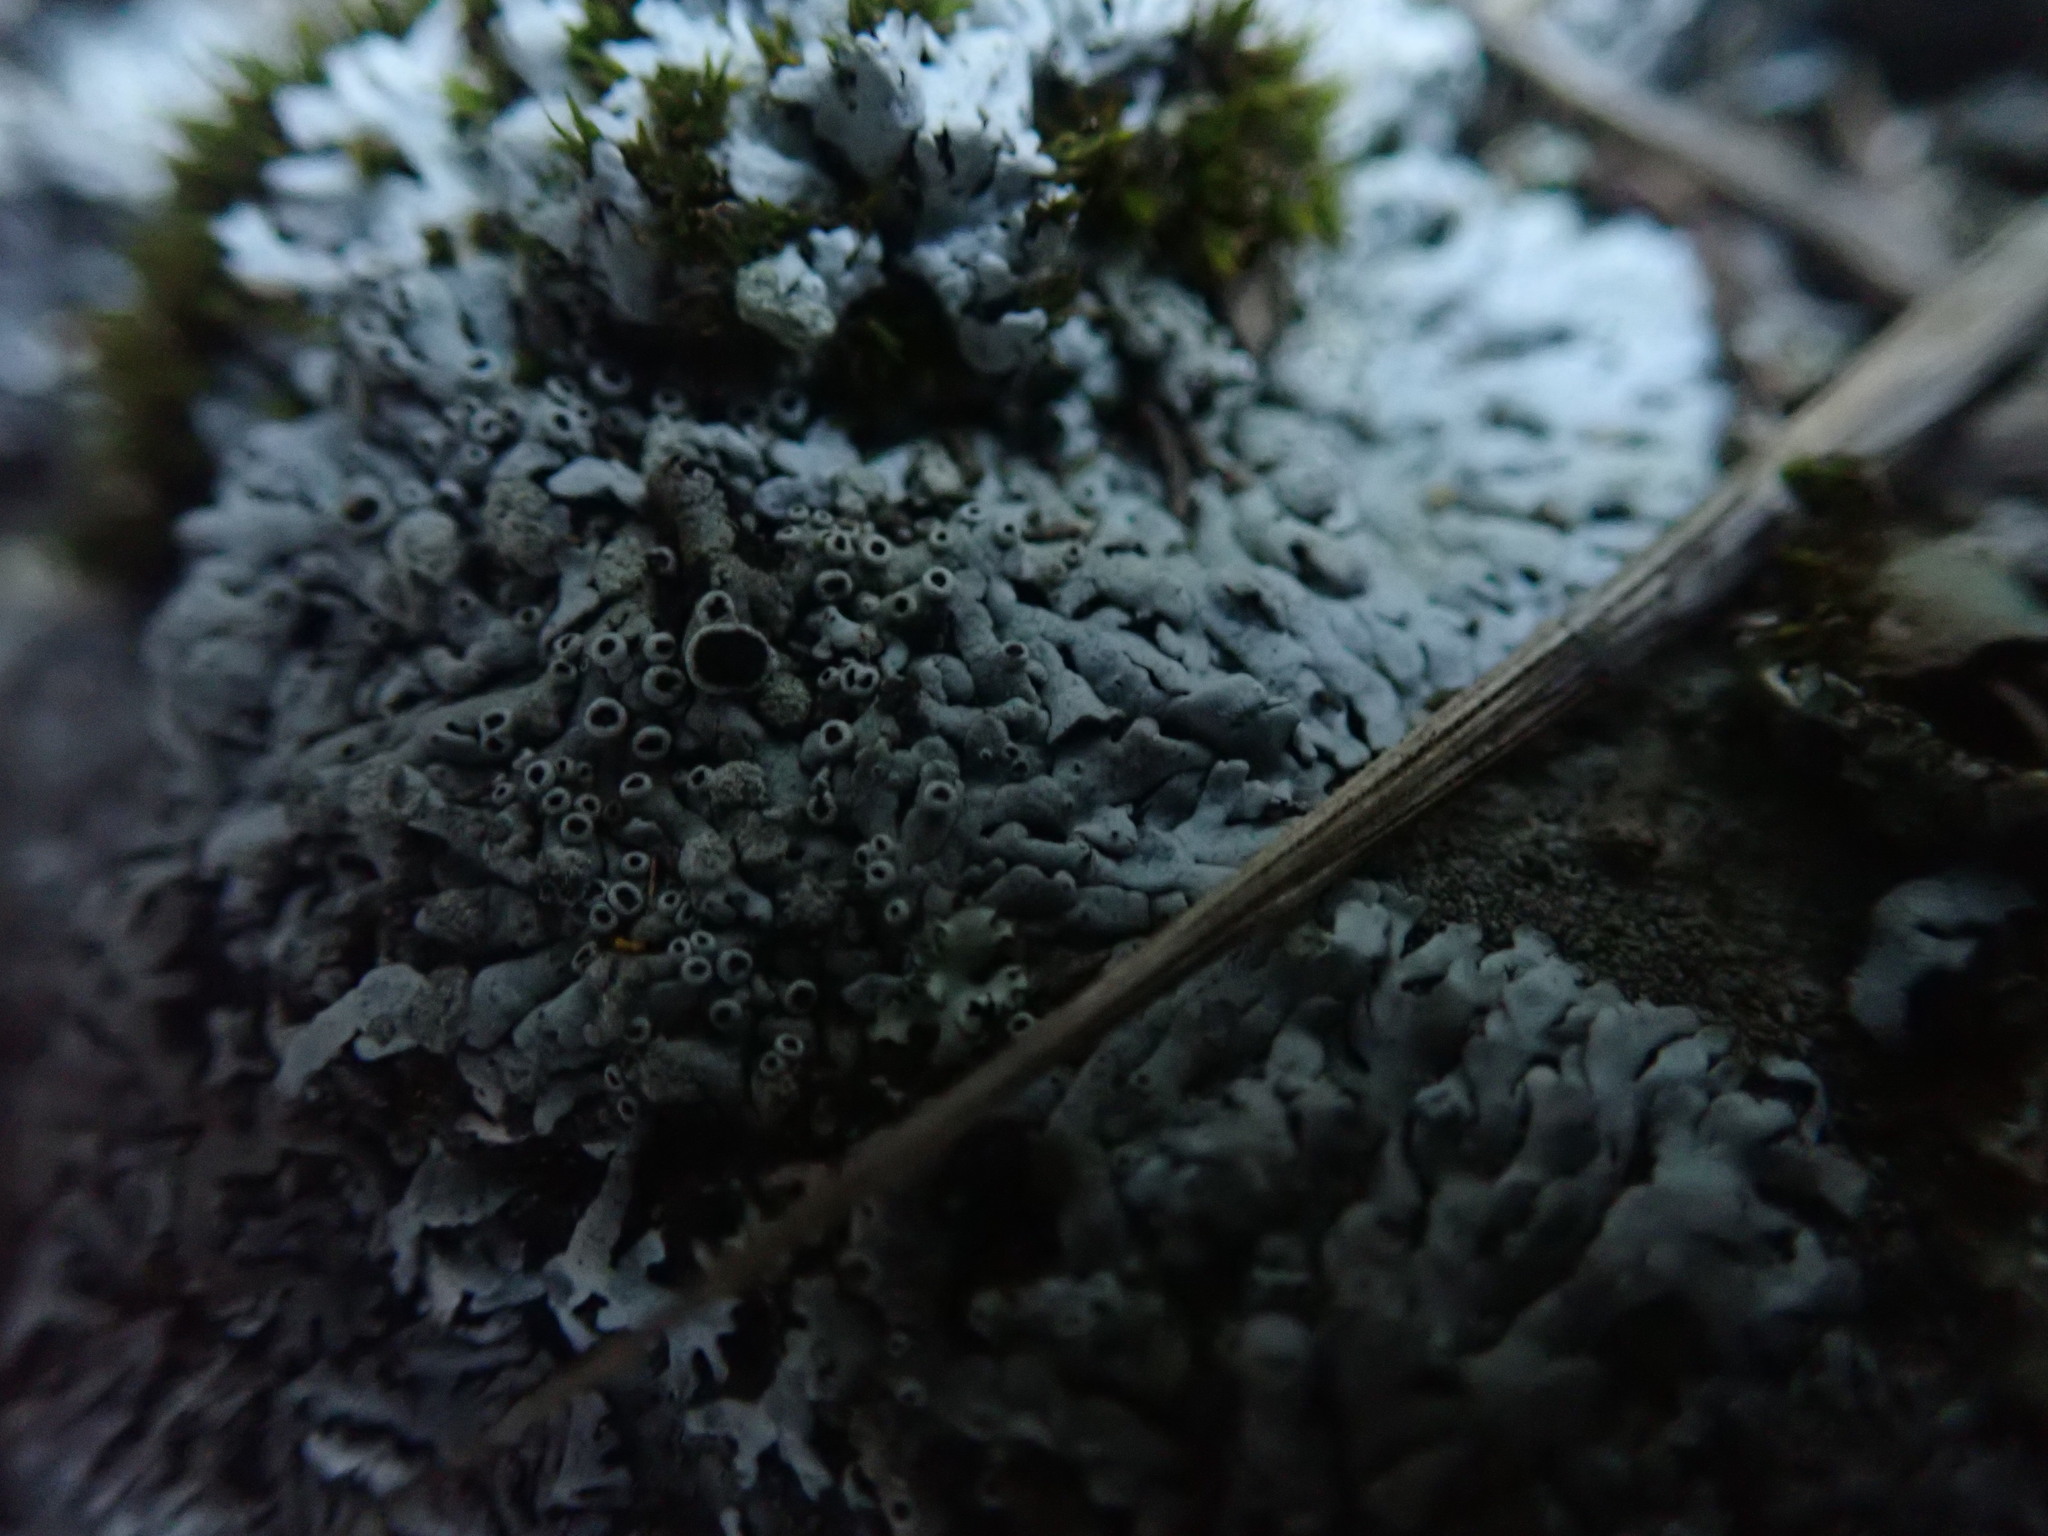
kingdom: Fungi
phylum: Ascomycota
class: Lecanoromycetes
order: Caliciales
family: Physciaceae
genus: Physcia
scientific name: Physcia phaea
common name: Black-eyed rosette lichen
